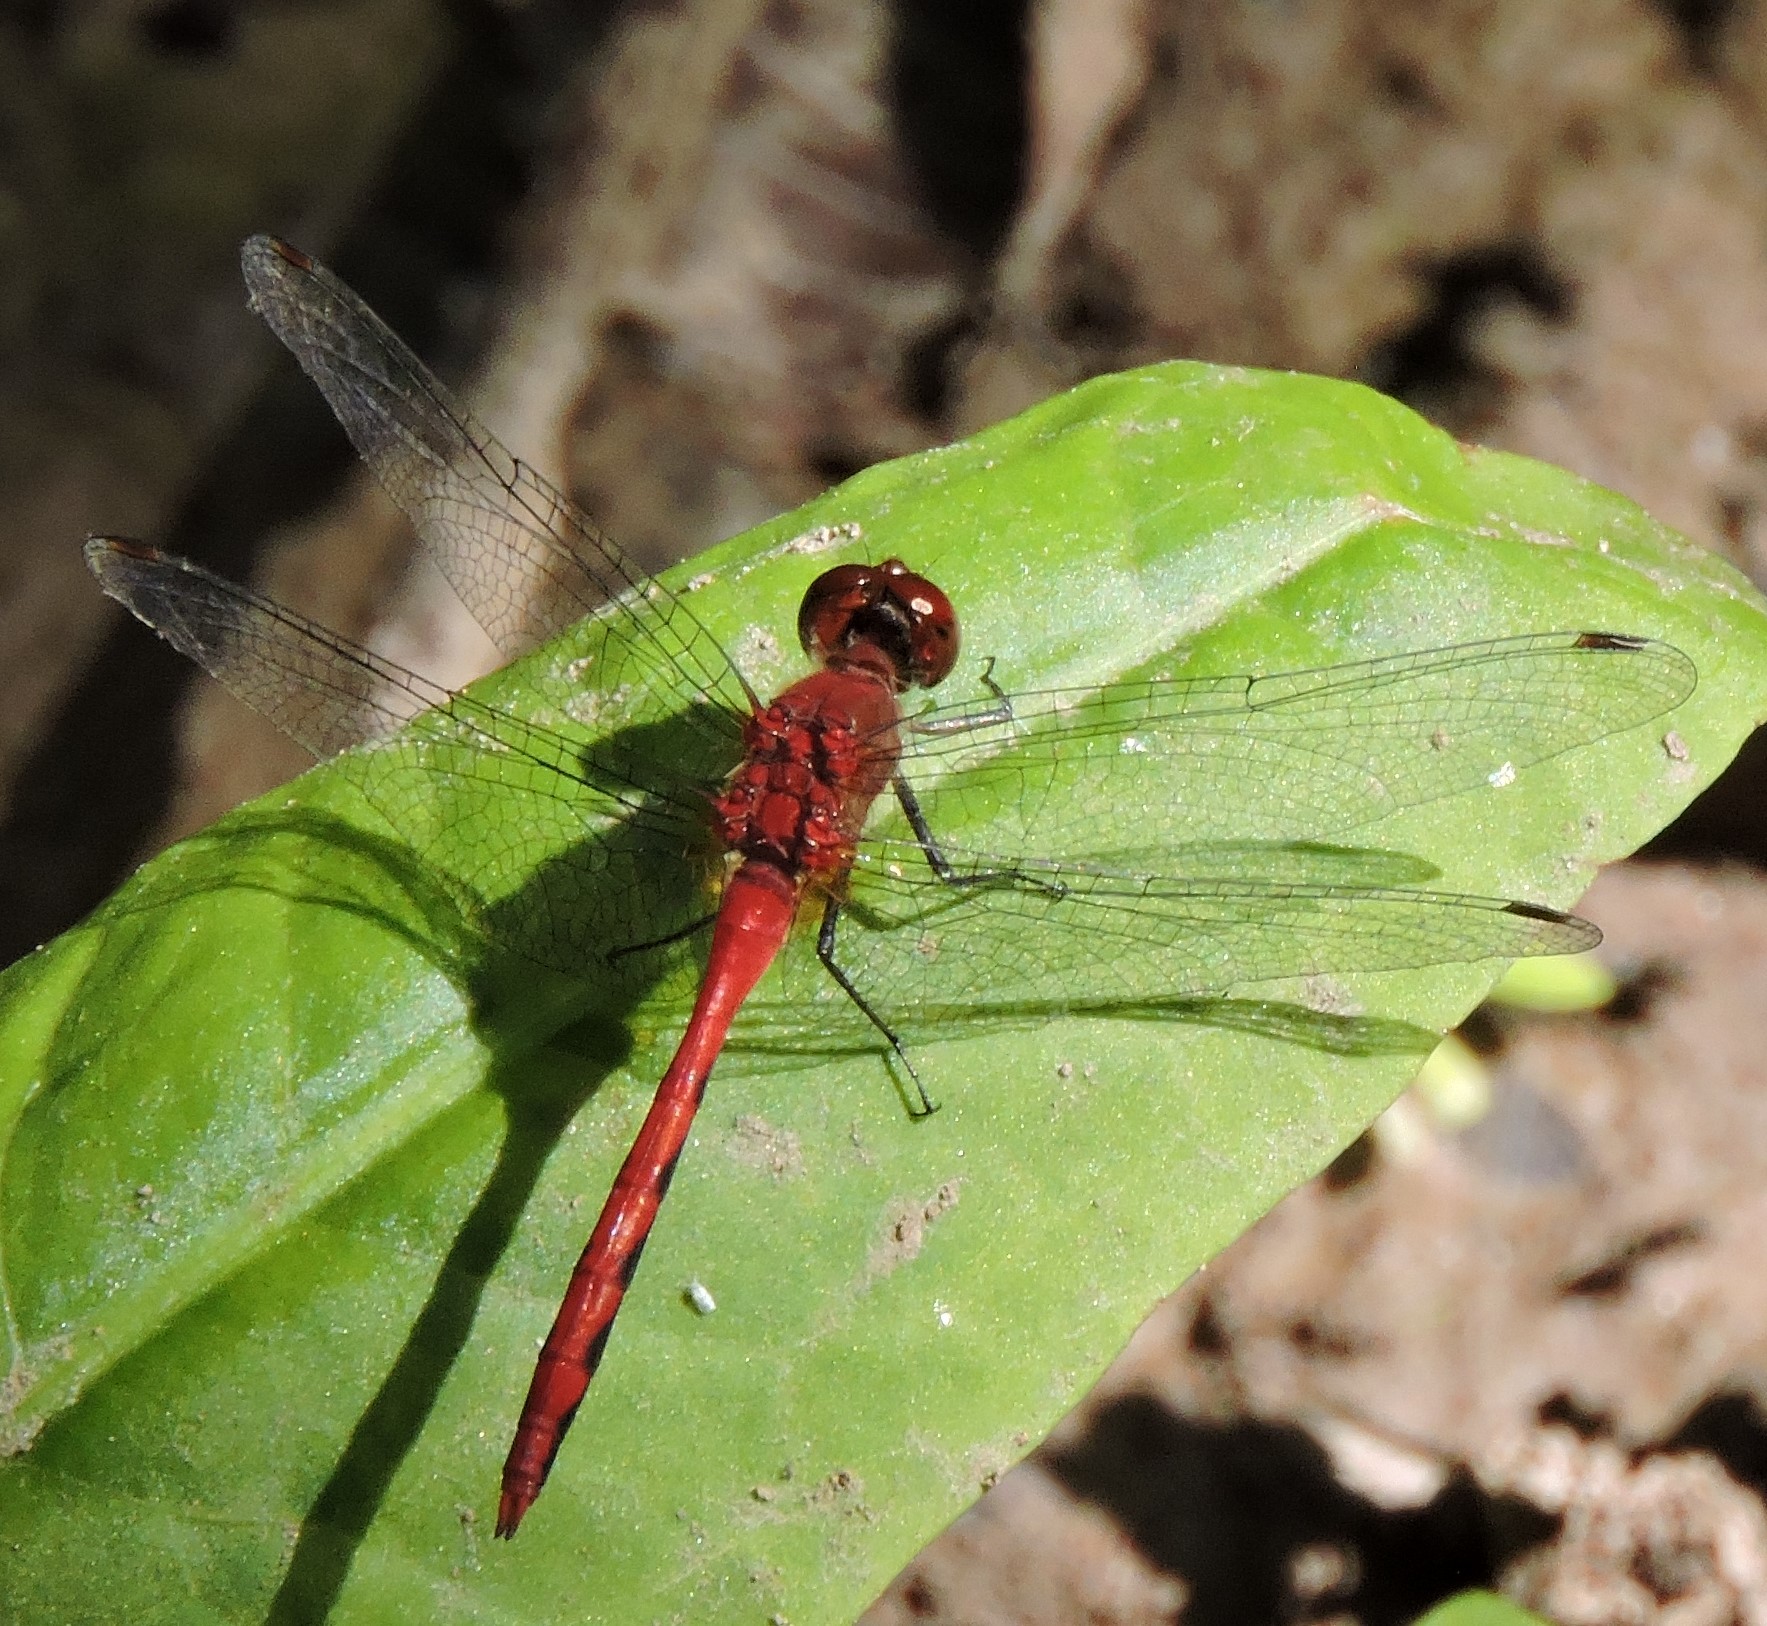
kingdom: Animalia
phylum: Arthropoda
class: Insecta
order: Odonata
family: Libellulidae
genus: Sympetrum
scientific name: Sympetrum
